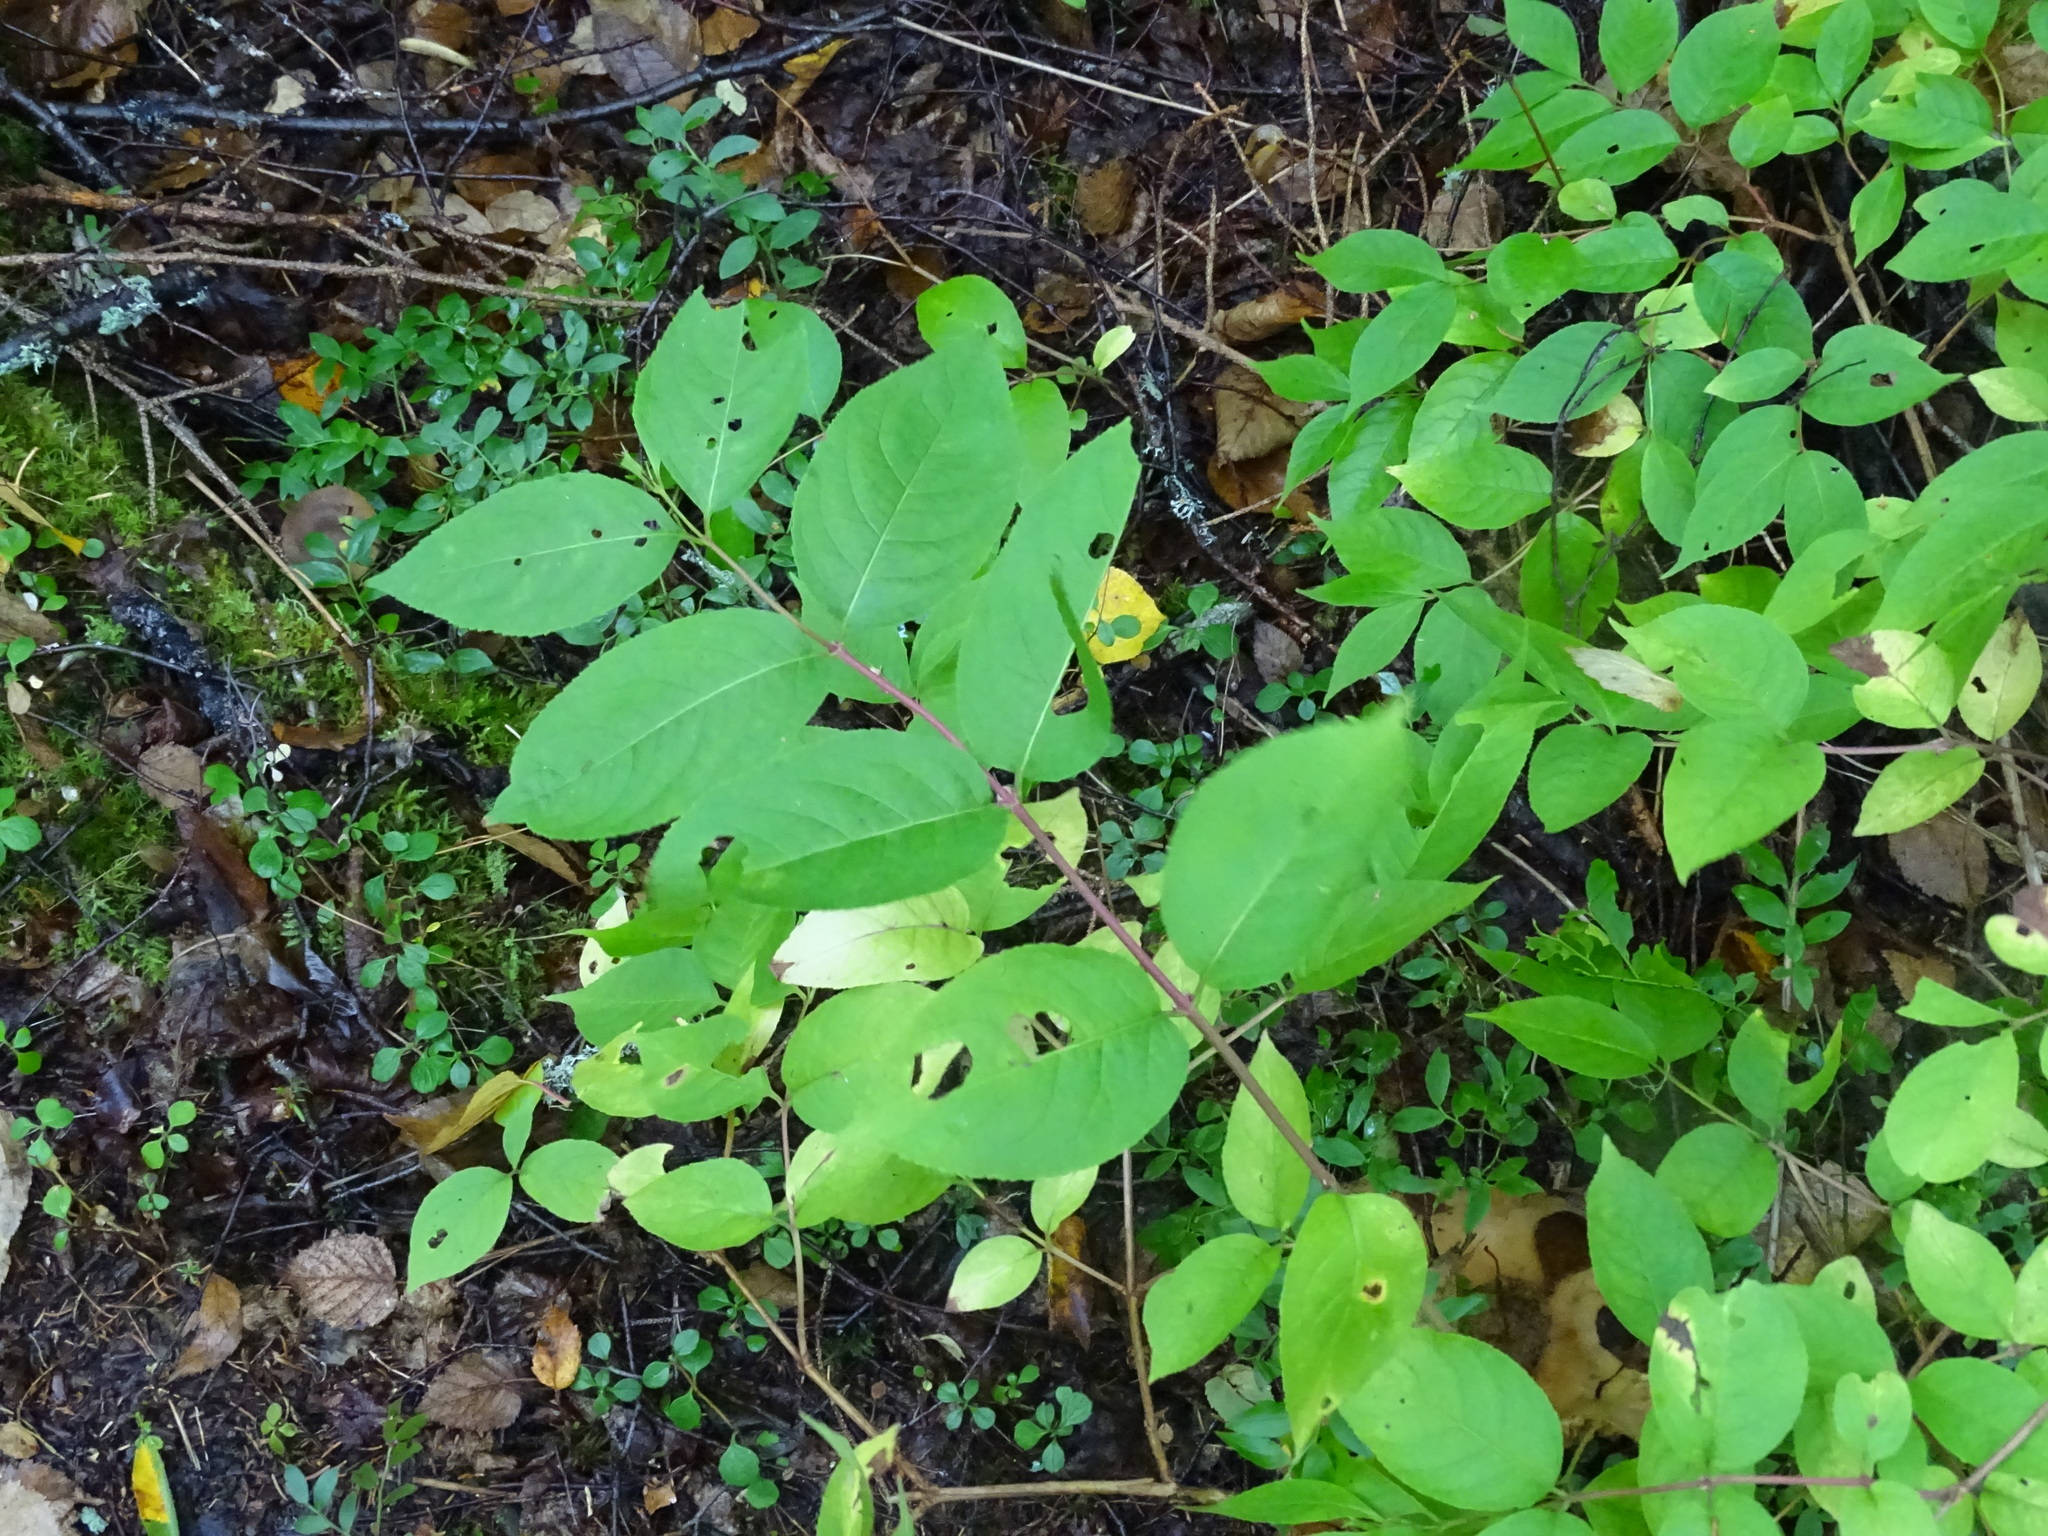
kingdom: Plantae
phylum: Tracheophyta
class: Magnoliopsida
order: Dipsacales
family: Caprifoliaceae
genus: Diervilla
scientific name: Diervilla lonicera
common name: Bush-honeysuckle
